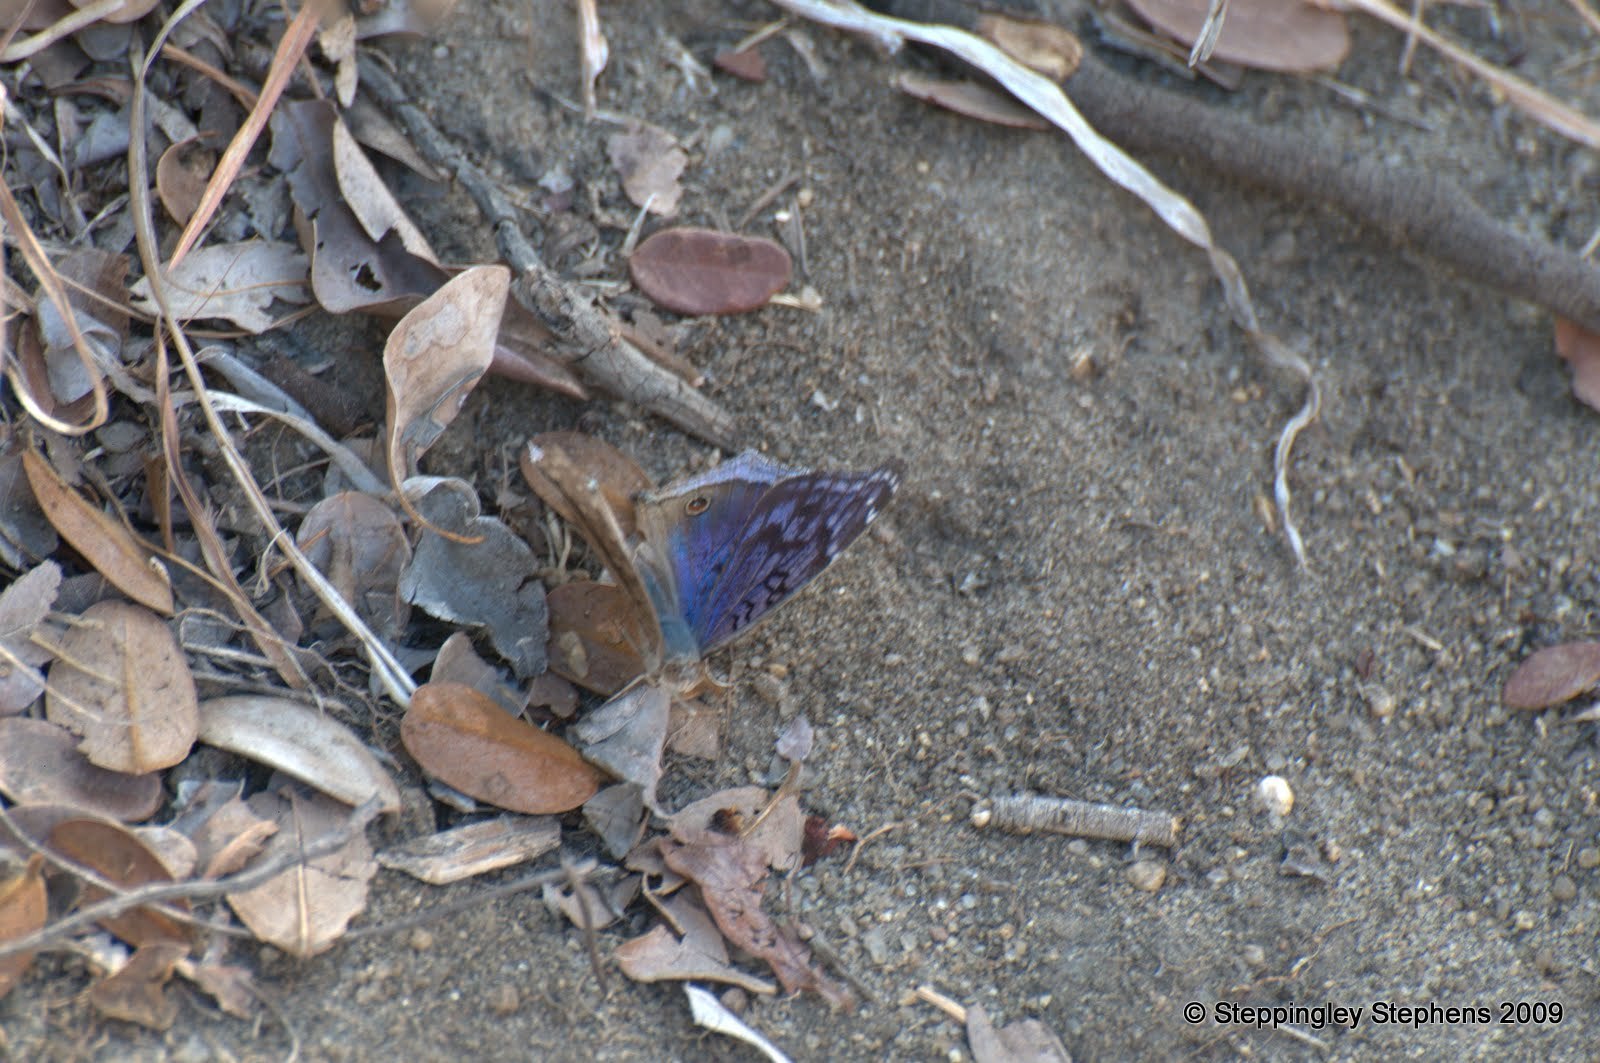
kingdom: Animalia
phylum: Arthropoda
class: Insecta
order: Lepidoptera
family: Nymphalidae
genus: Junonia
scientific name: Junonia rhadama
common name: Royal blue pansy
